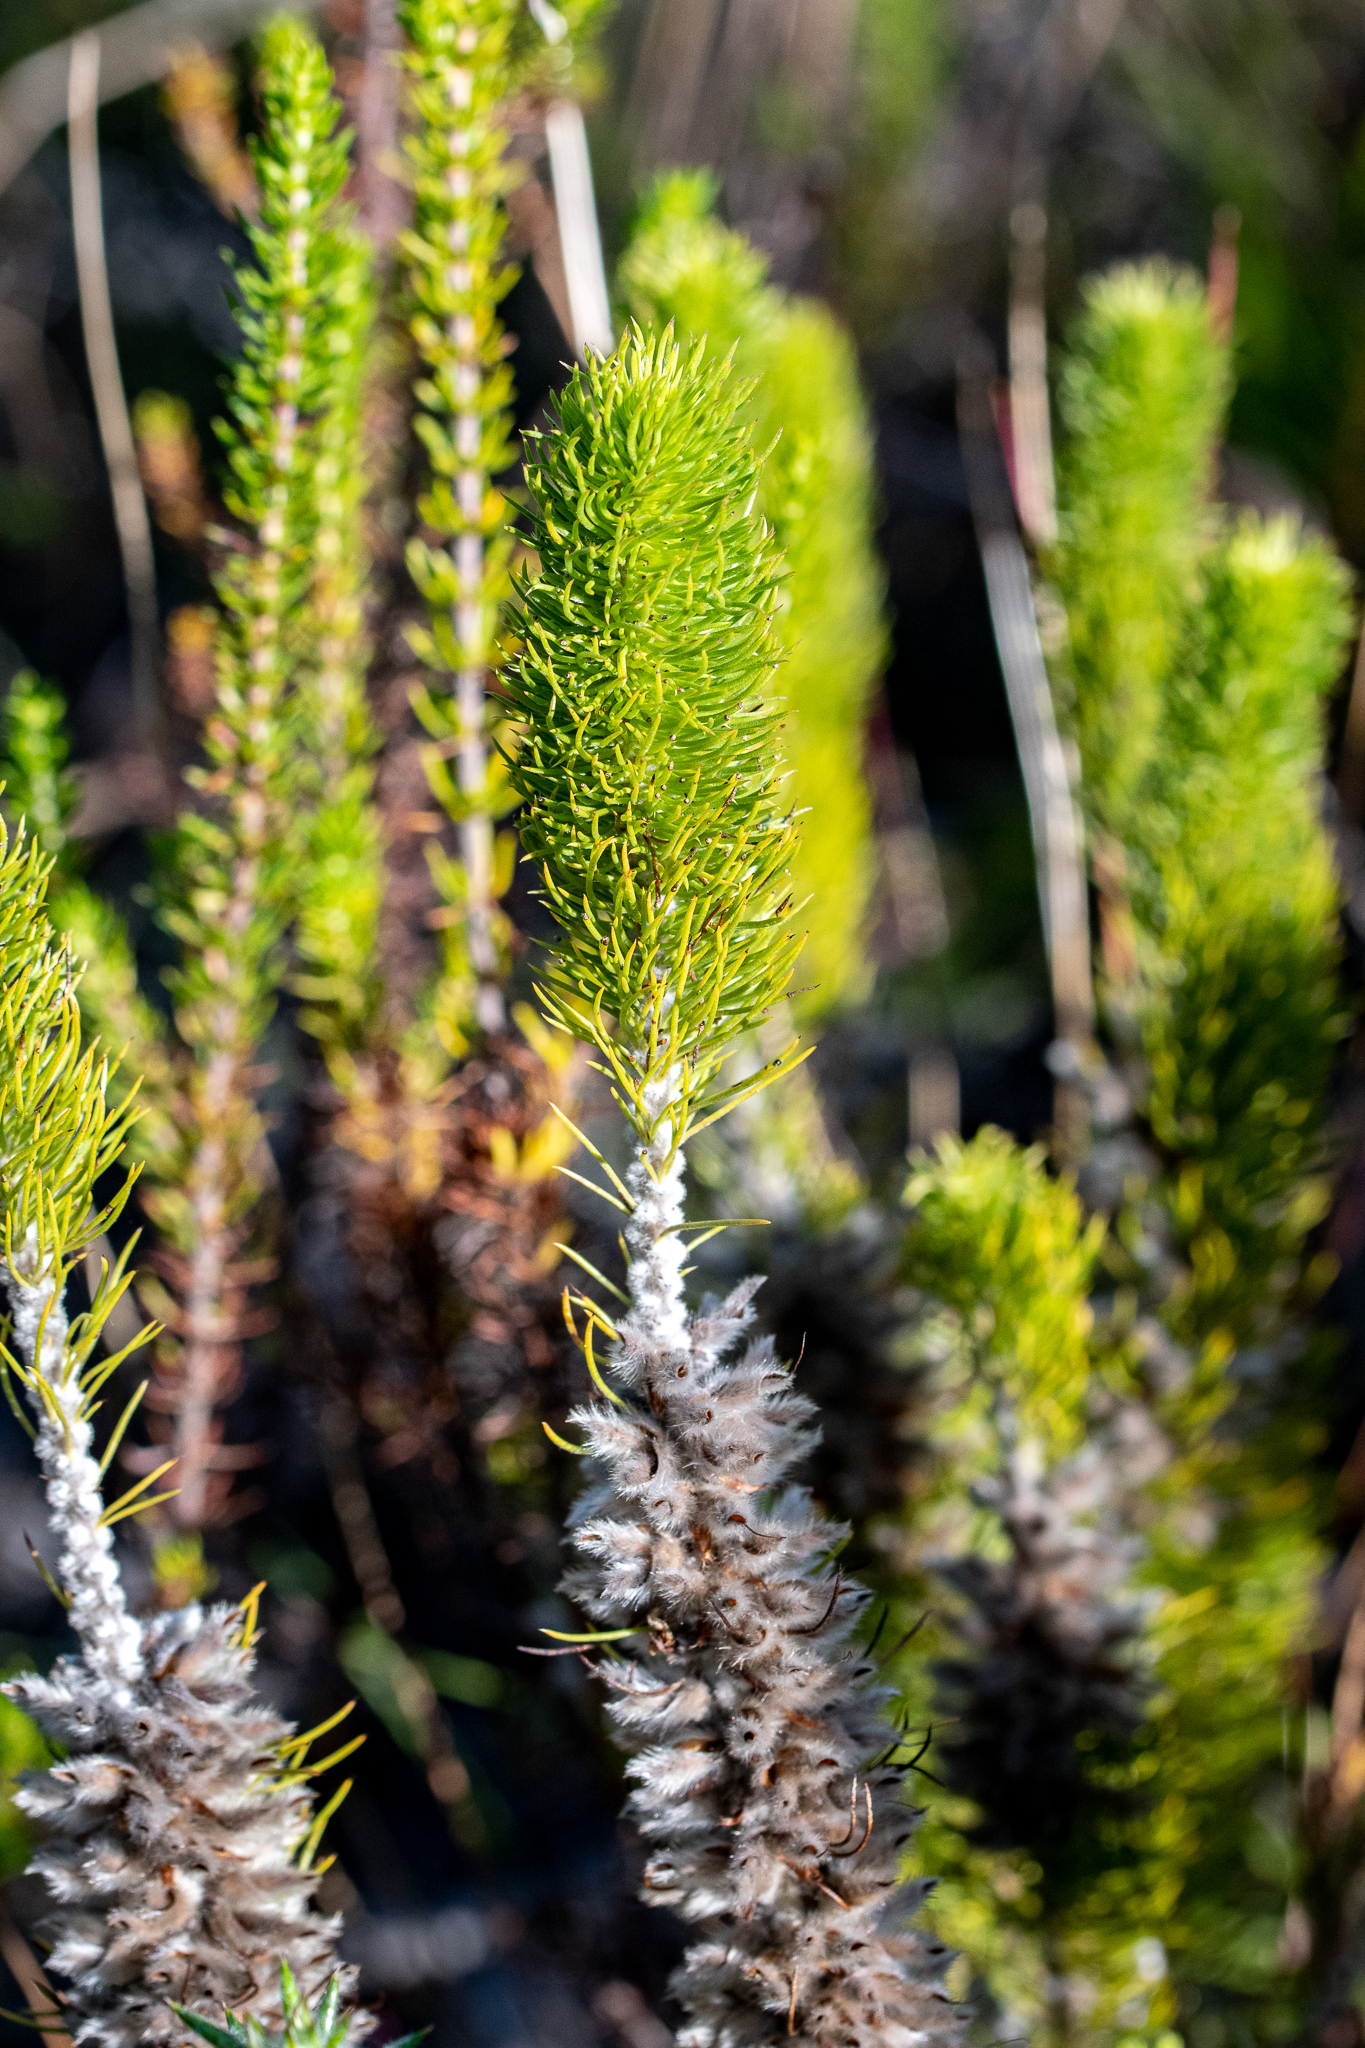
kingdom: Plantae
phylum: Tracheophyta
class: Magnoliopsida
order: Fabales
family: Fabaceae
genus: Aspalathus
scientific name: Aspalathus incurvifolia
